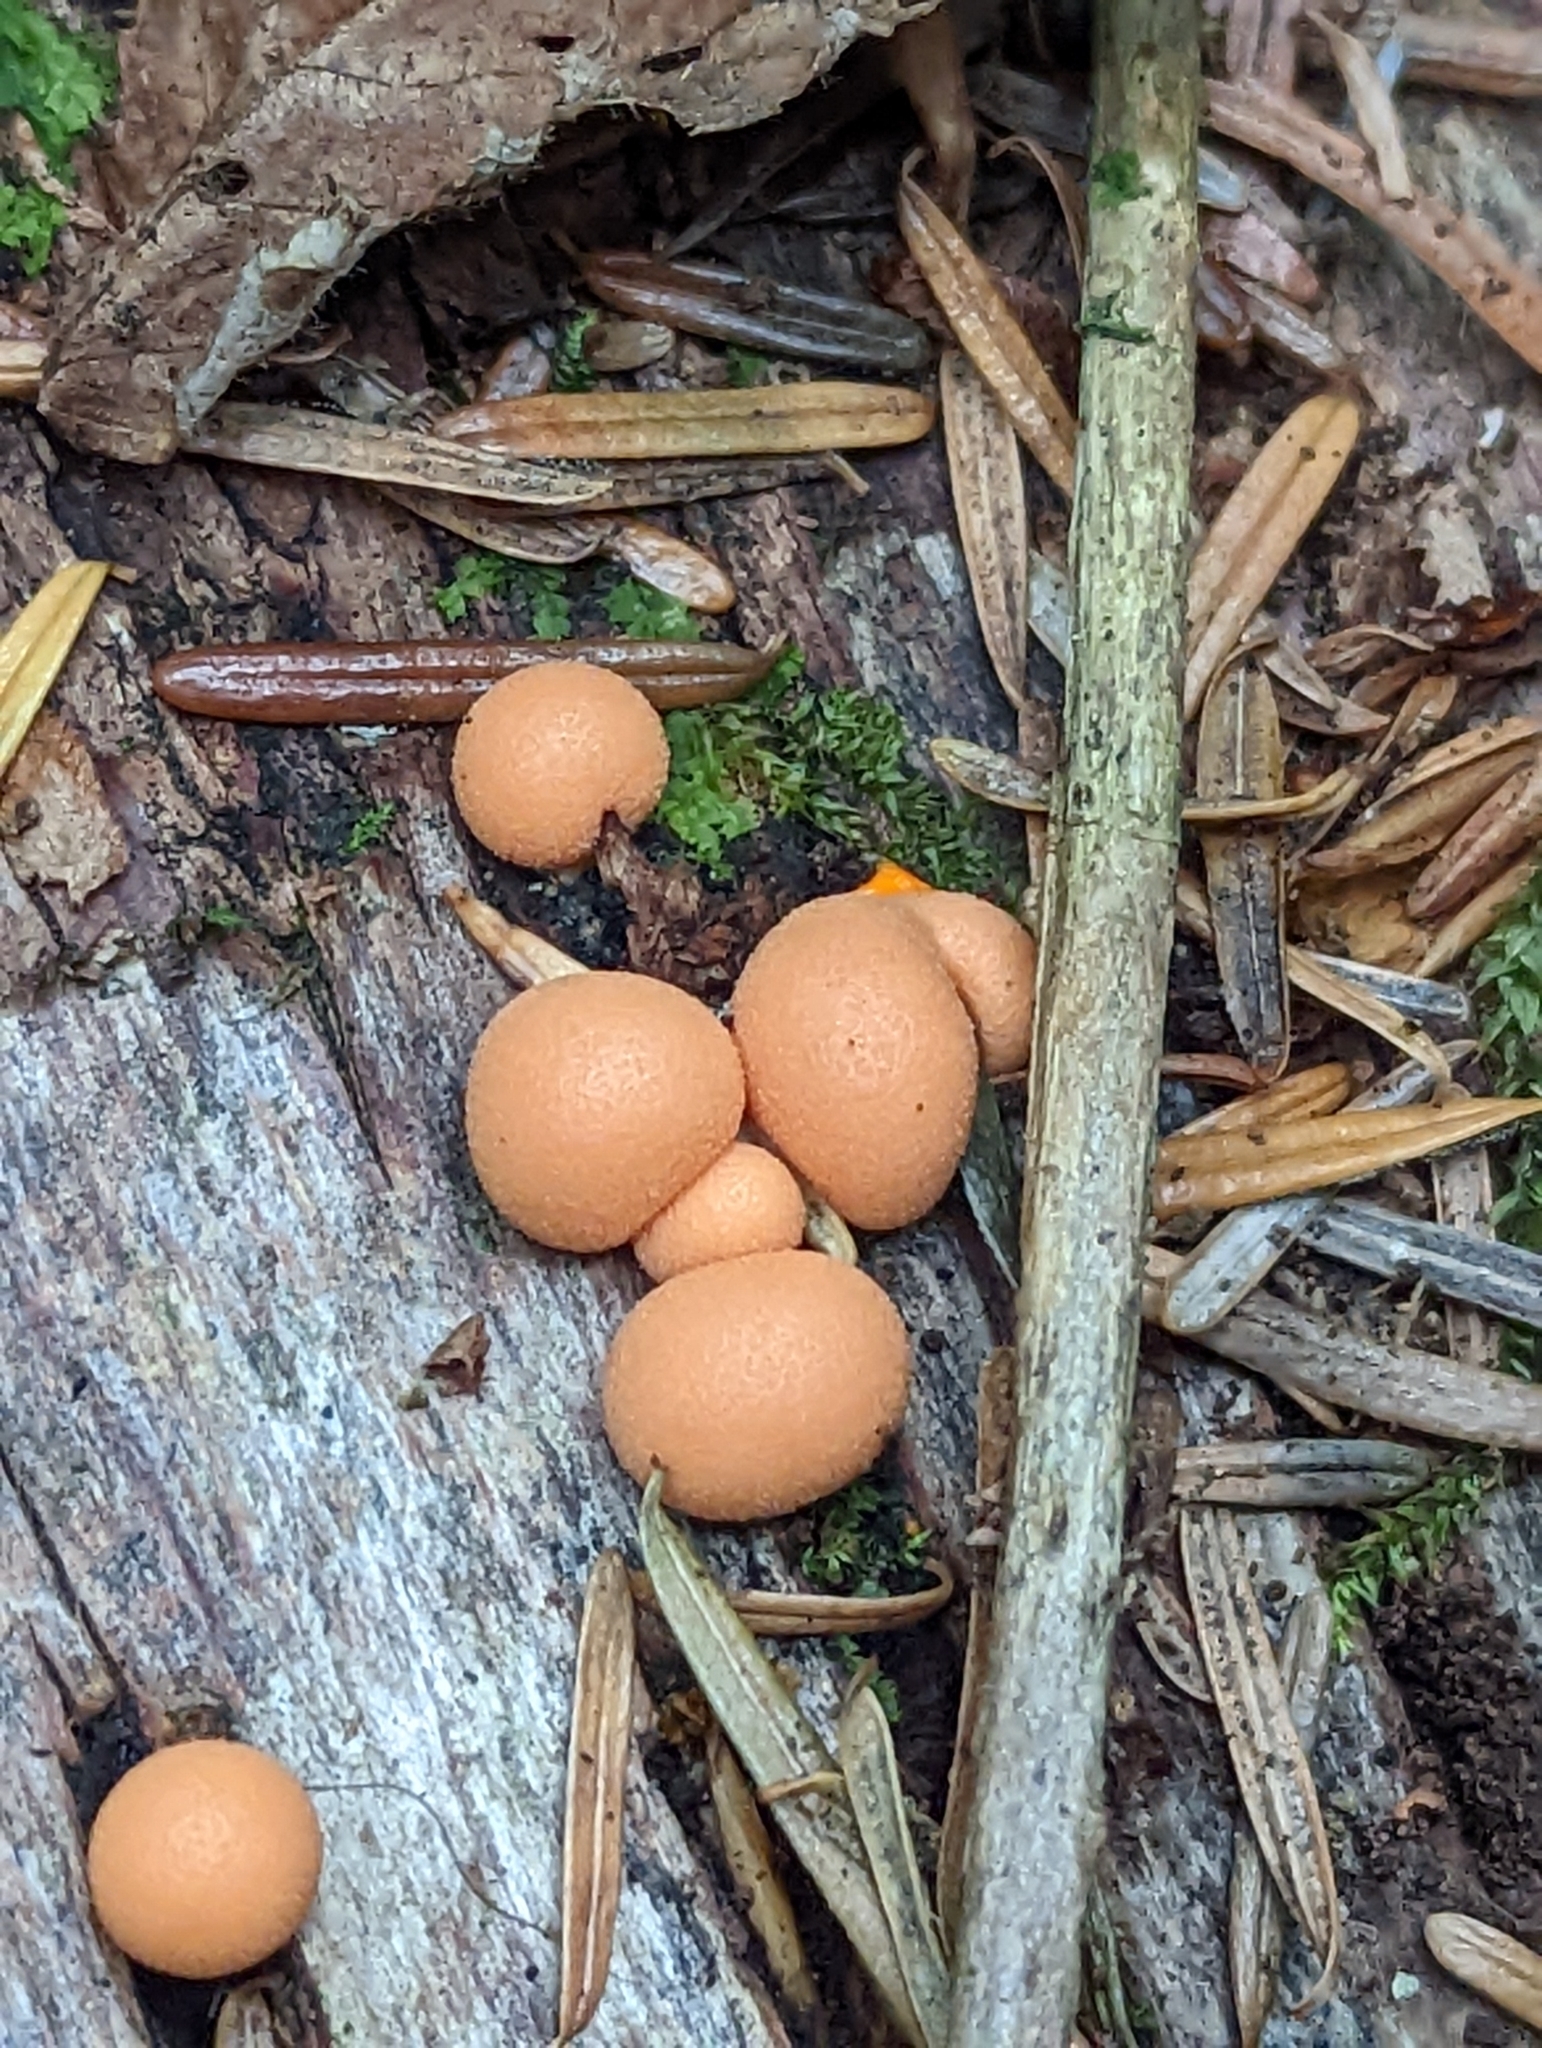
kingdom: Protozoa
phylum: Mycetozoa
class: Myxomycetes
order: Cribrariales
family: Tubiferaceae
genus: Lycogala
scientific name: Lycogala epidendrum
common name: Wolf's milk
